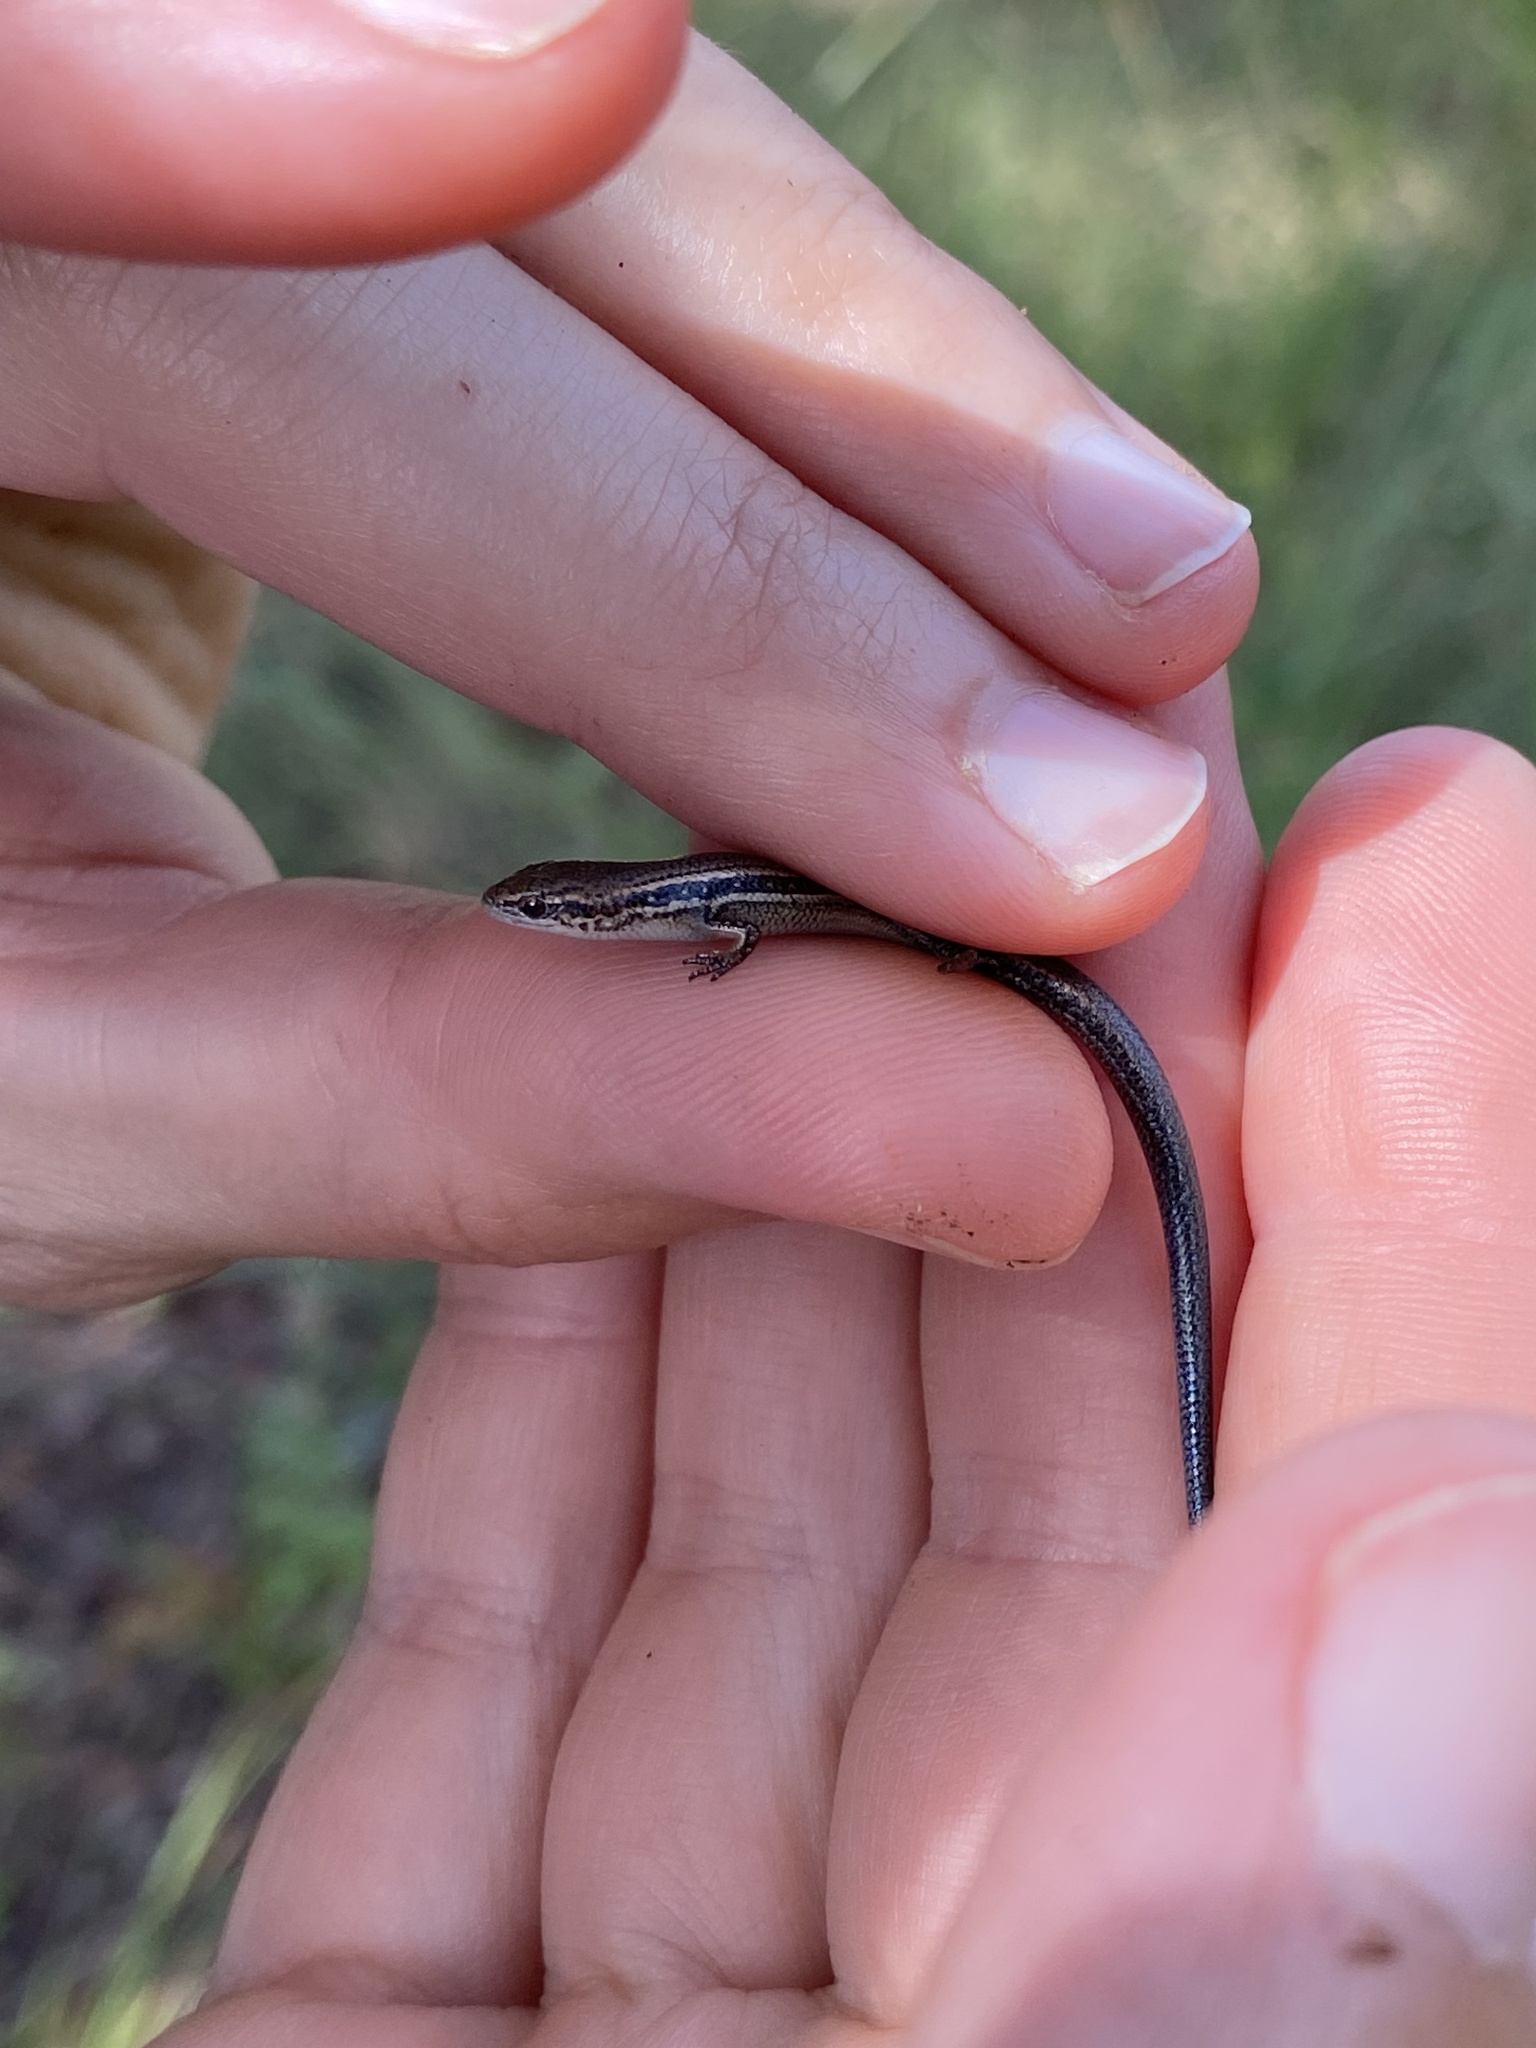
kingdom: Animalia
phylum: Chordata
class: Squamata
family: Scincidae
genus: Panaspis
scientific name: Panaspis wahlbergii
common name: Angolan snake-eyed skink
